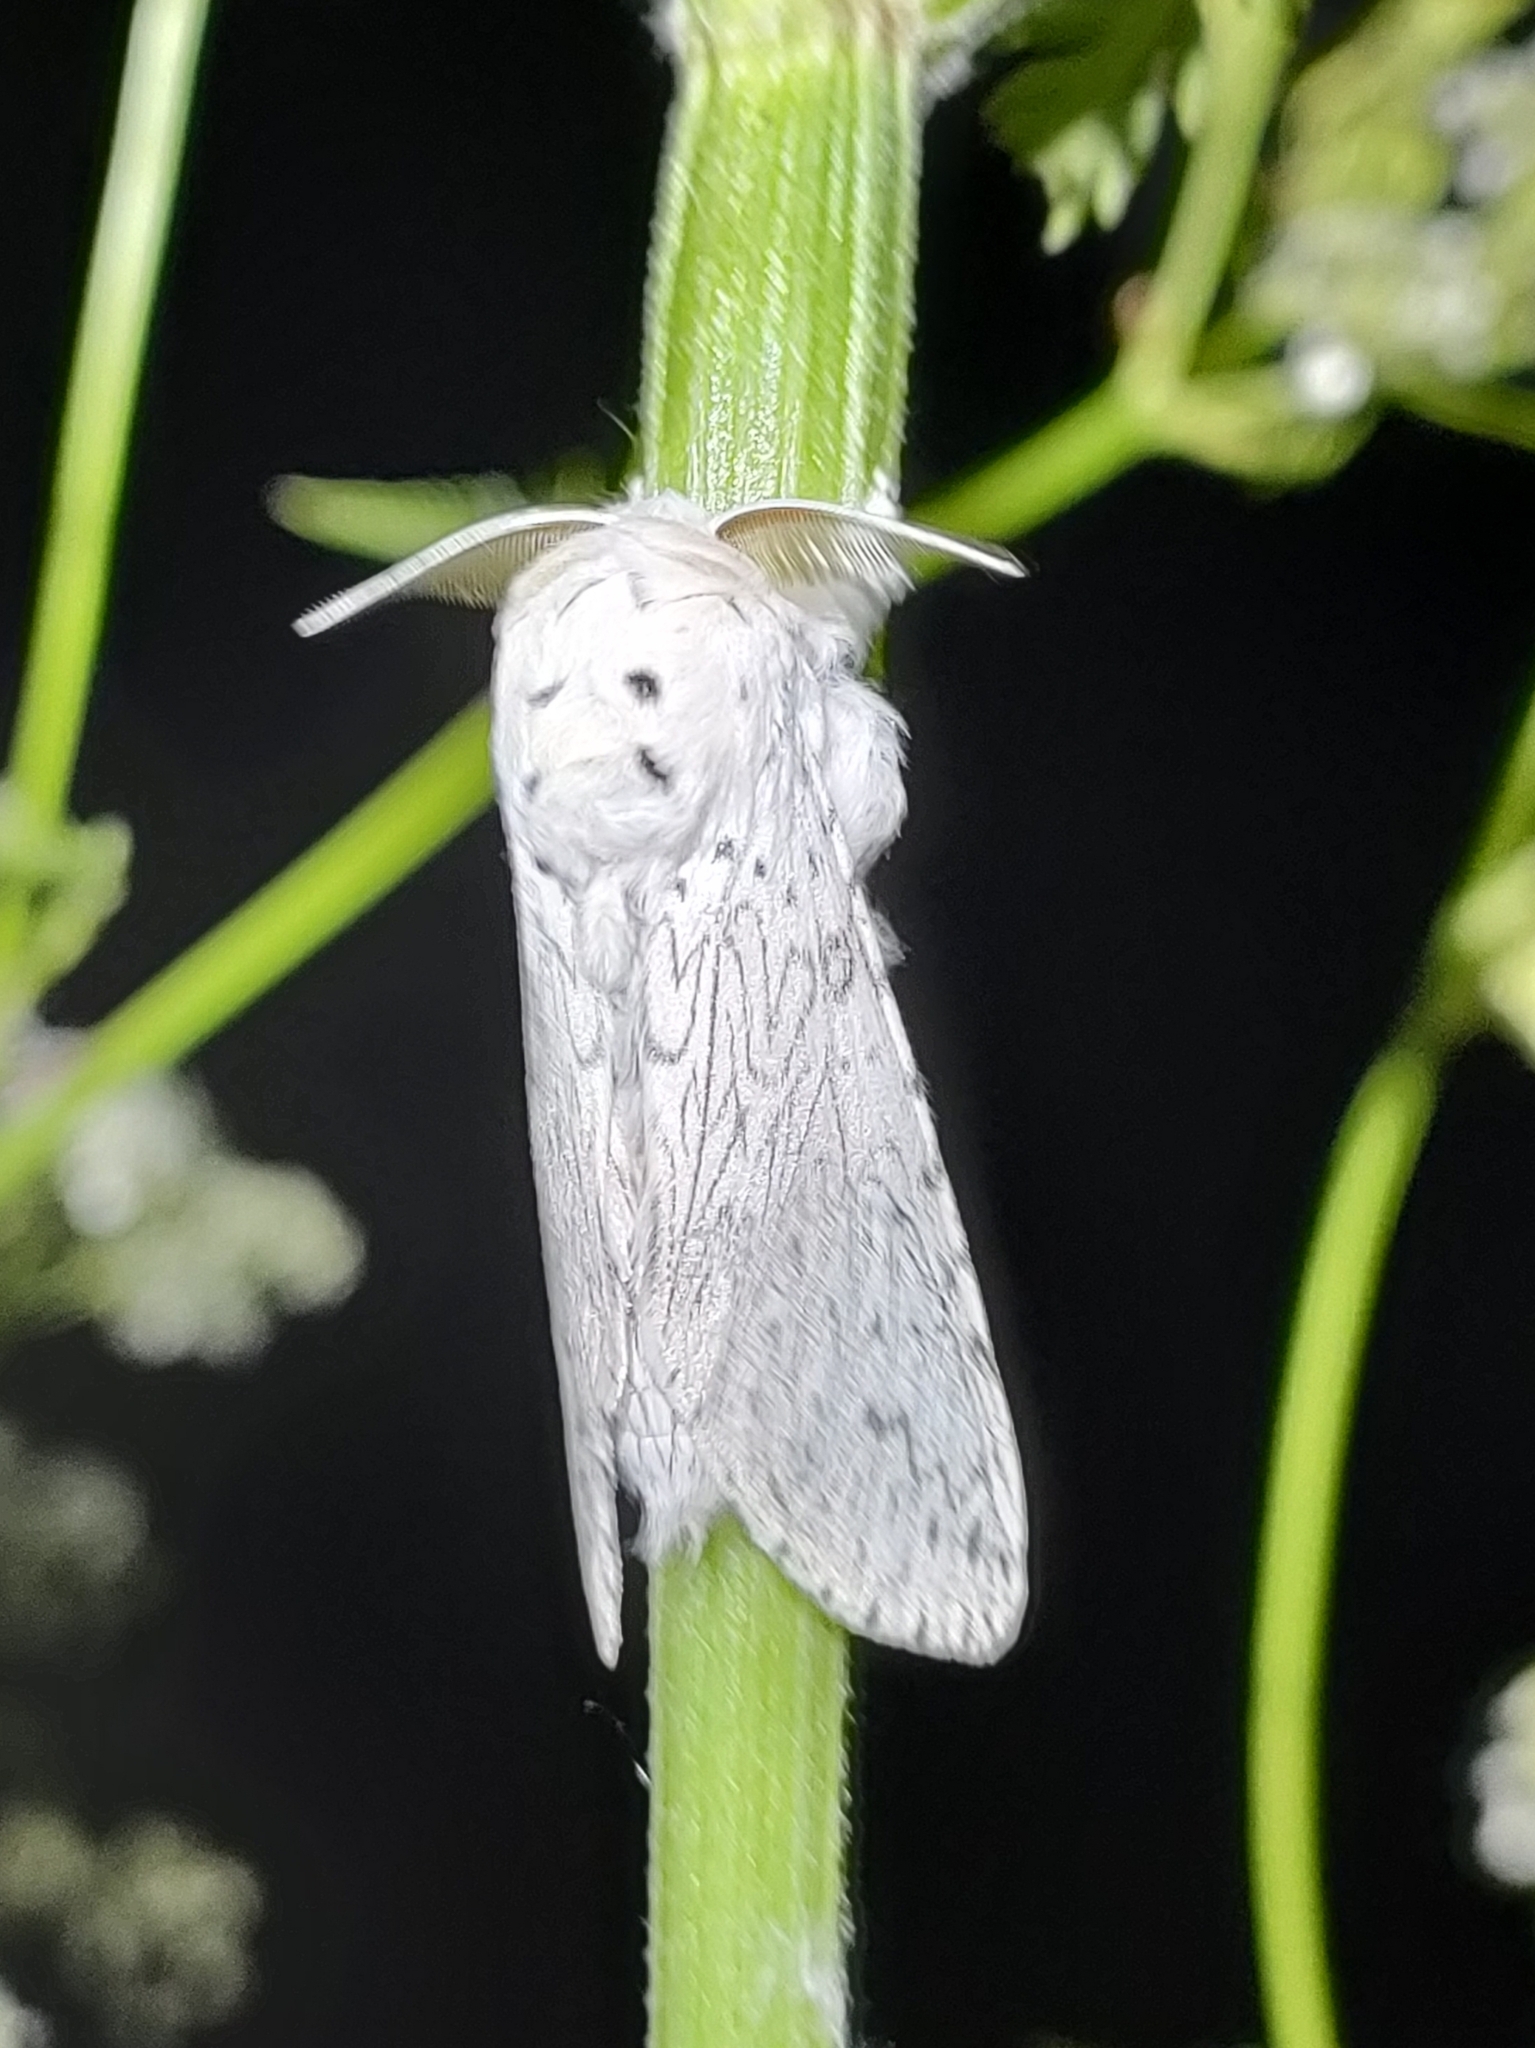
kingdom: Animalia
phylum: Arthropoda
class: Insecta
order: Lepidoptera
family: Notodontidae
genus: Cerura
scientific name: Cerura erminea
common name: Lesser puss moth
